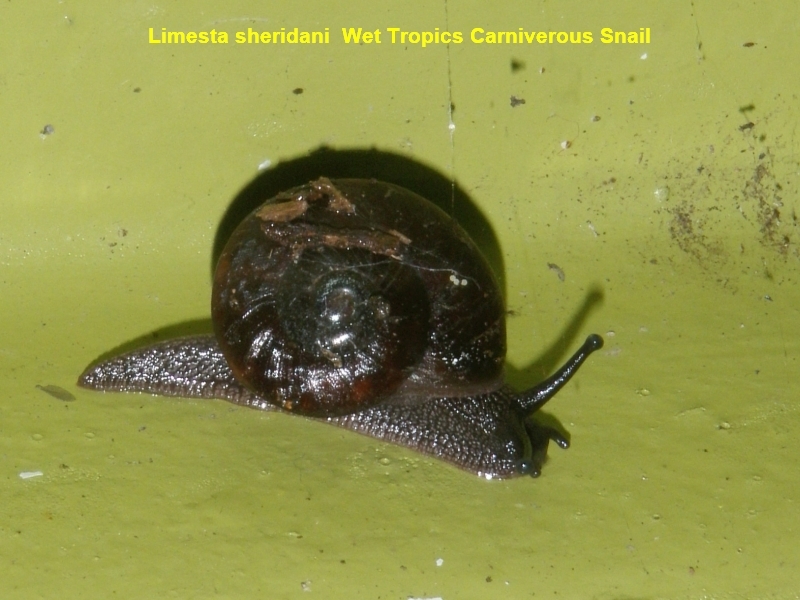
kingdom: Animalia
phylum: Mollusca
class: Gastropoda
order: Stylommatophora
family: Rhytididae
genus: Limesta
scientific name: Limesta sheridani
